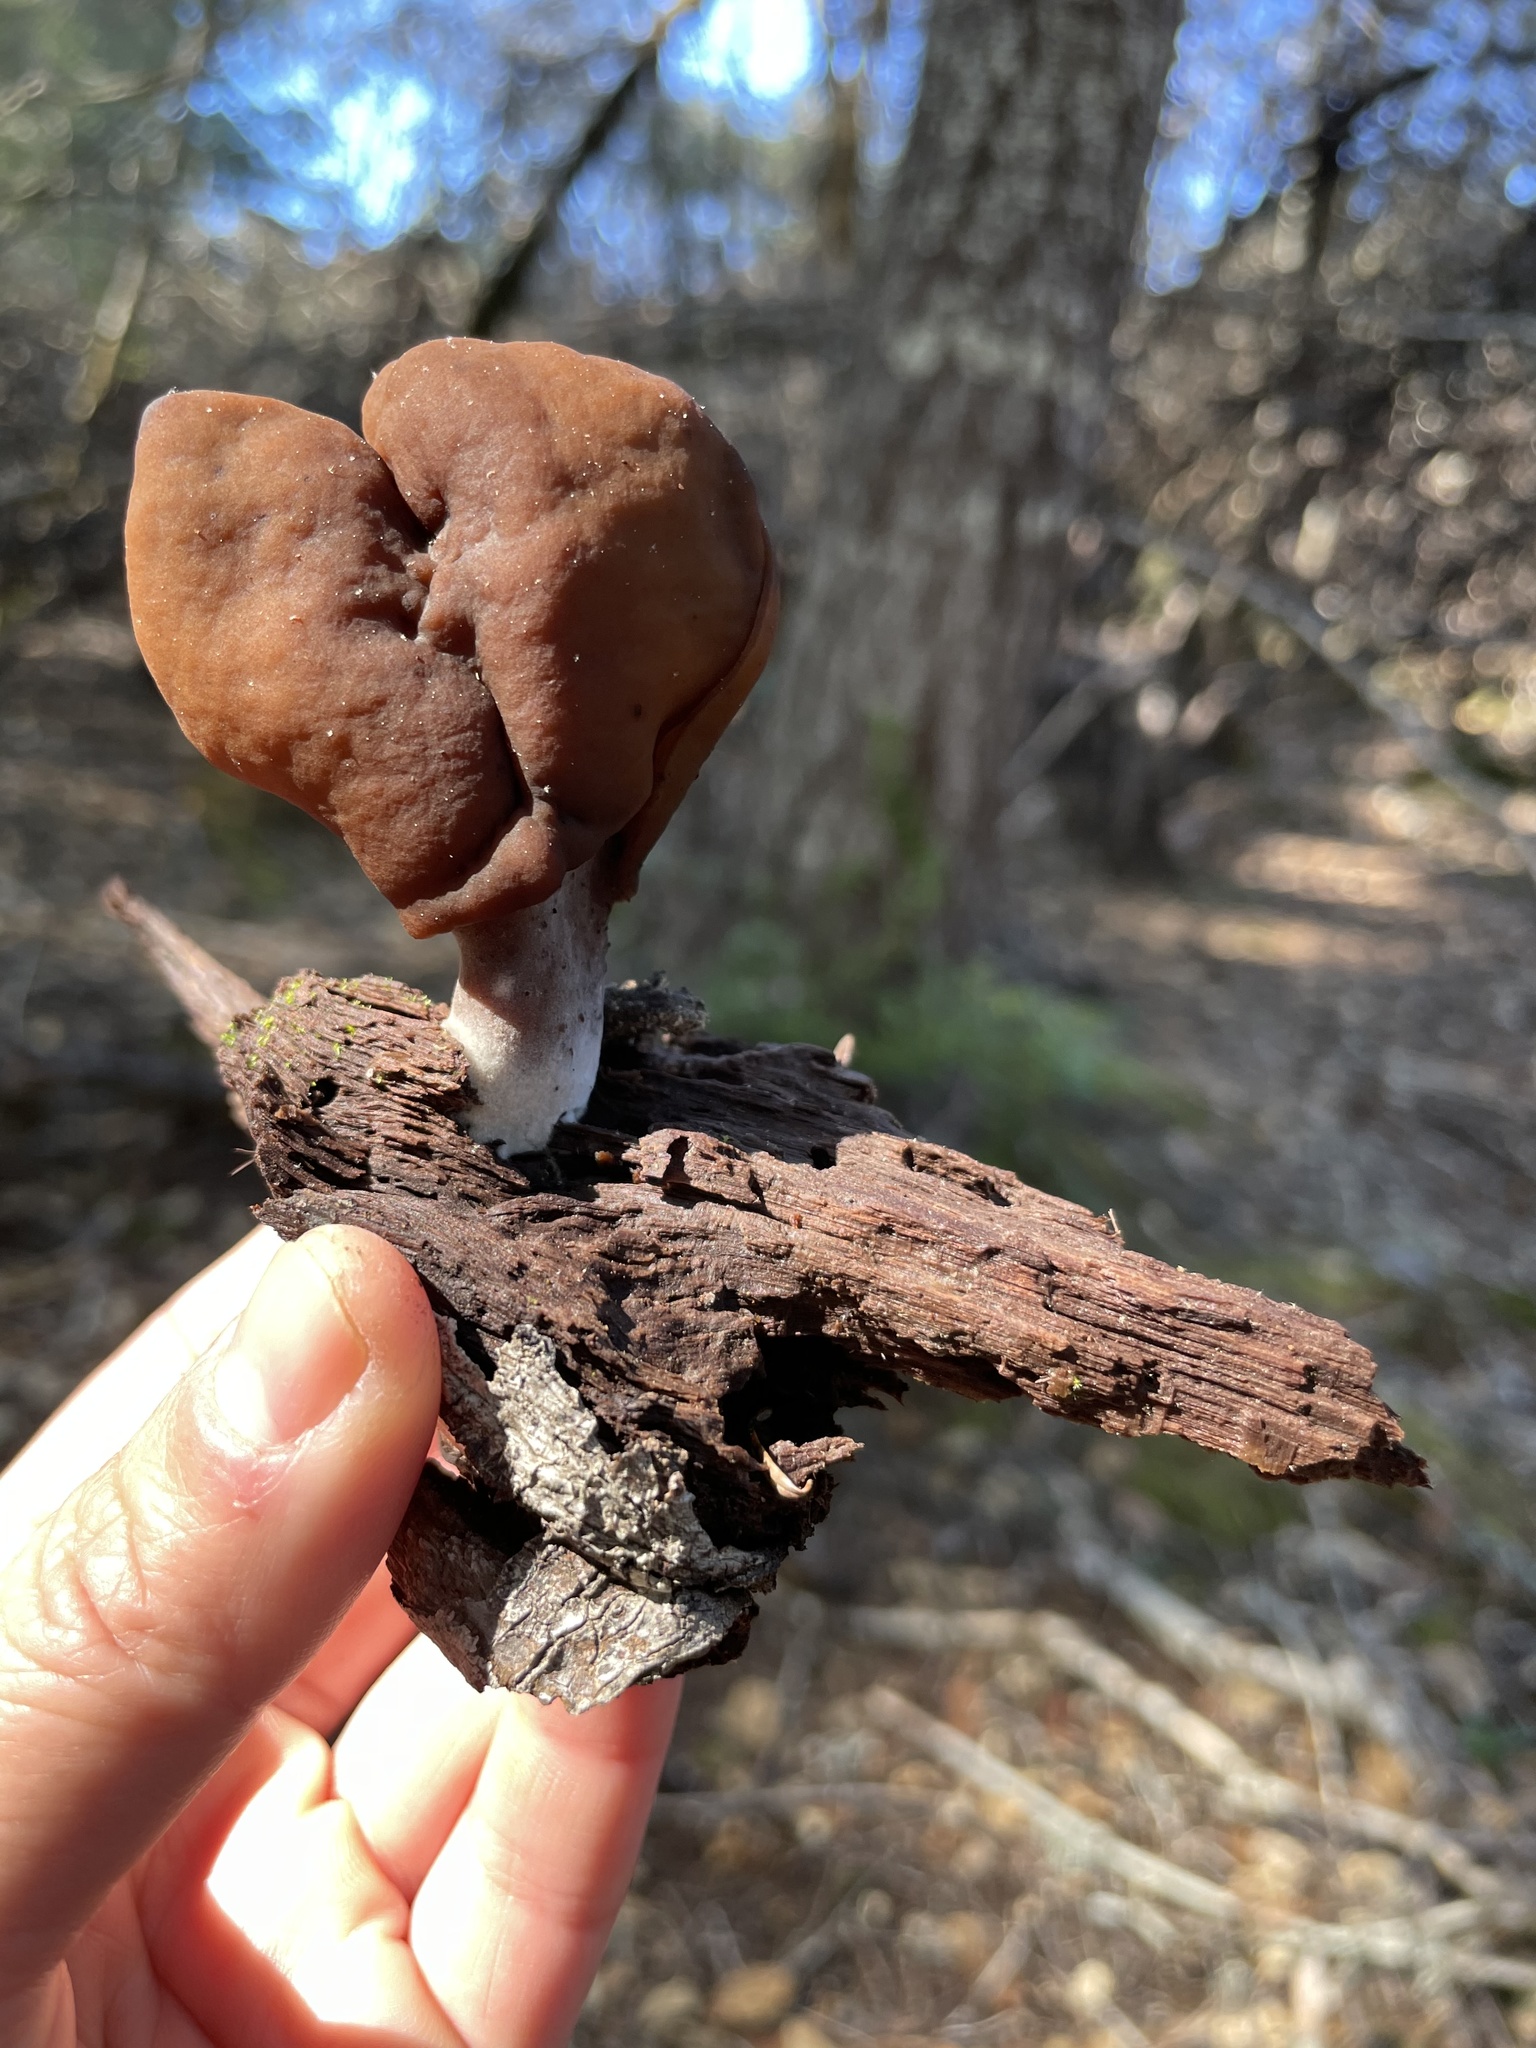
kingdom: Fungi
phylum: Ascomycota
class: Pezizomycetes
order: Pezizales
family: Discinaceae
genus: Gyromitra
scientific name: Gyromitra infula
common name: Pouched false morel
